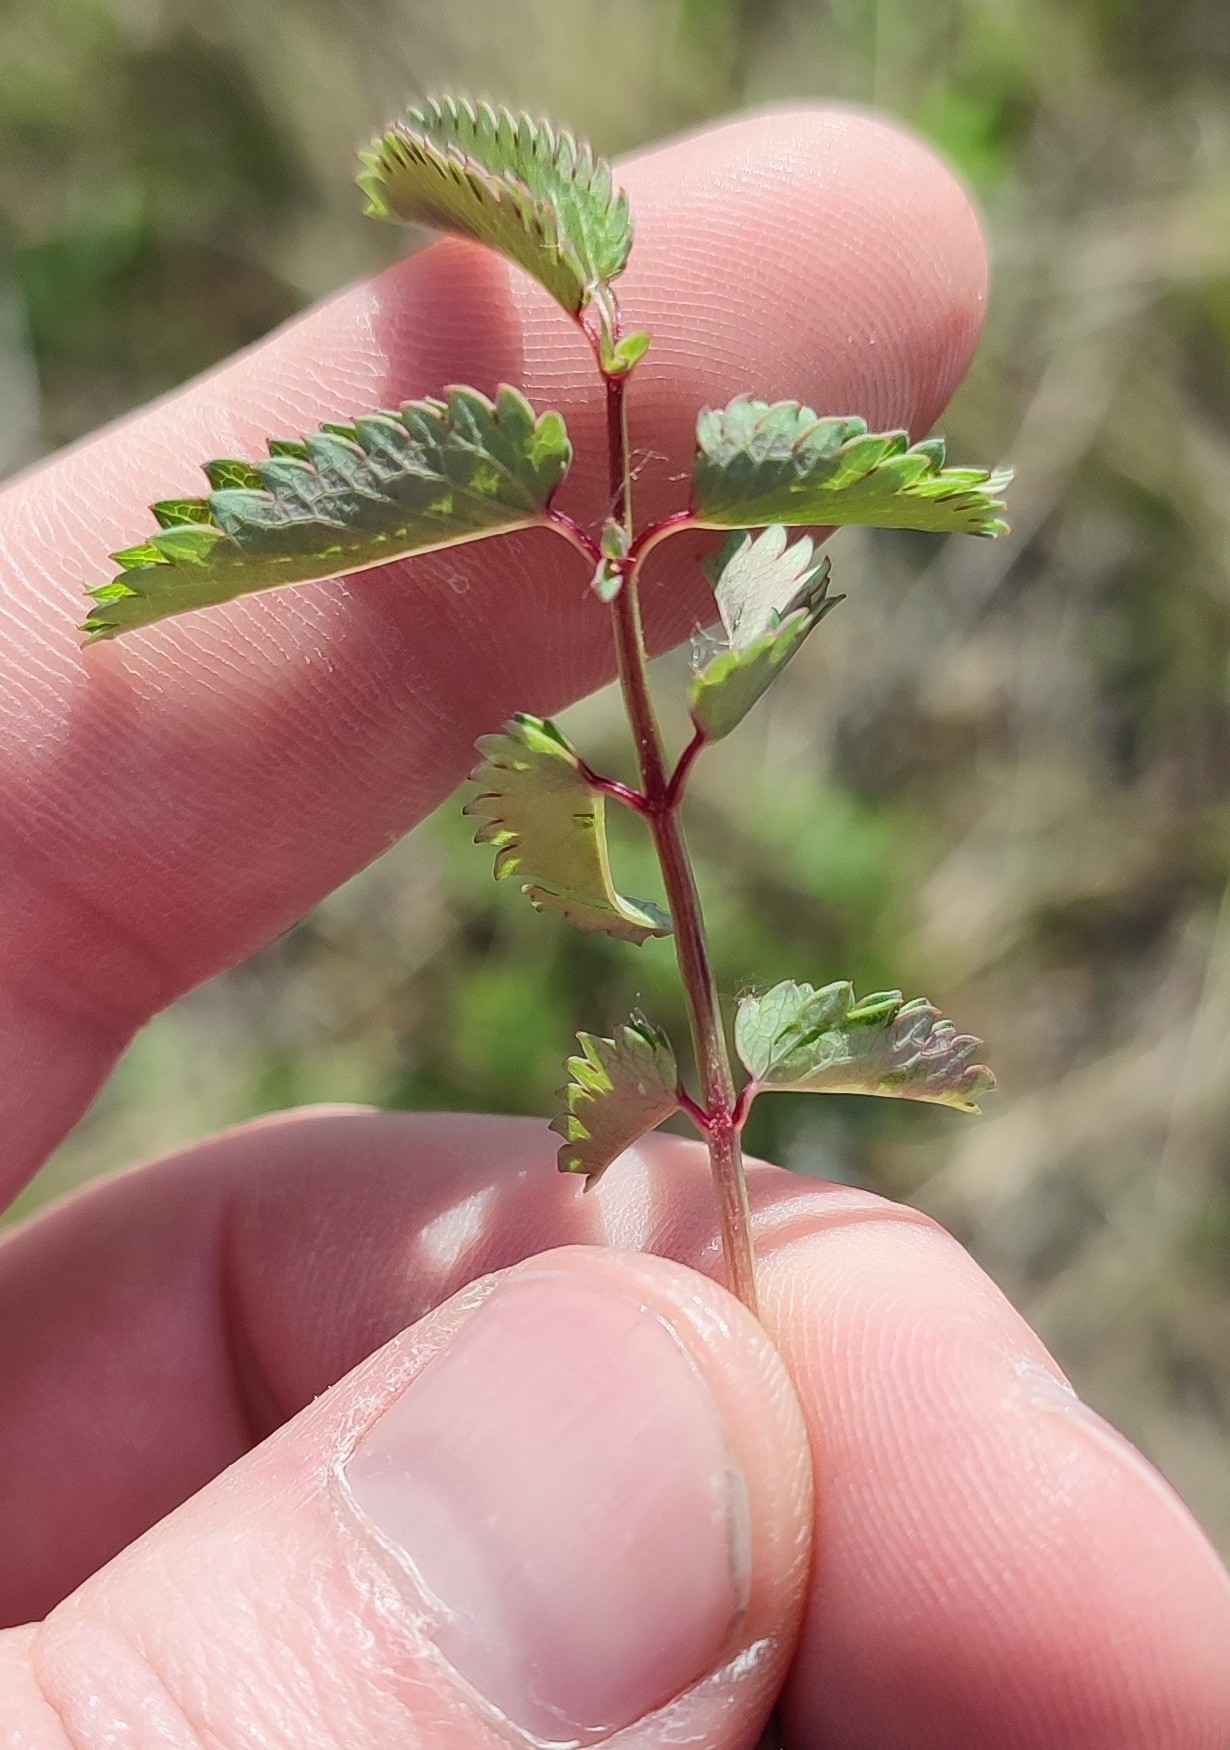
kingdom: Plantae
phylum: Tracheophyta
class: Magnoliopsida
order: Rosales
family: Rosaceae
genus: Sanguisorba
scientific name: Sanguisorba officinalis
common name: Great burnet
